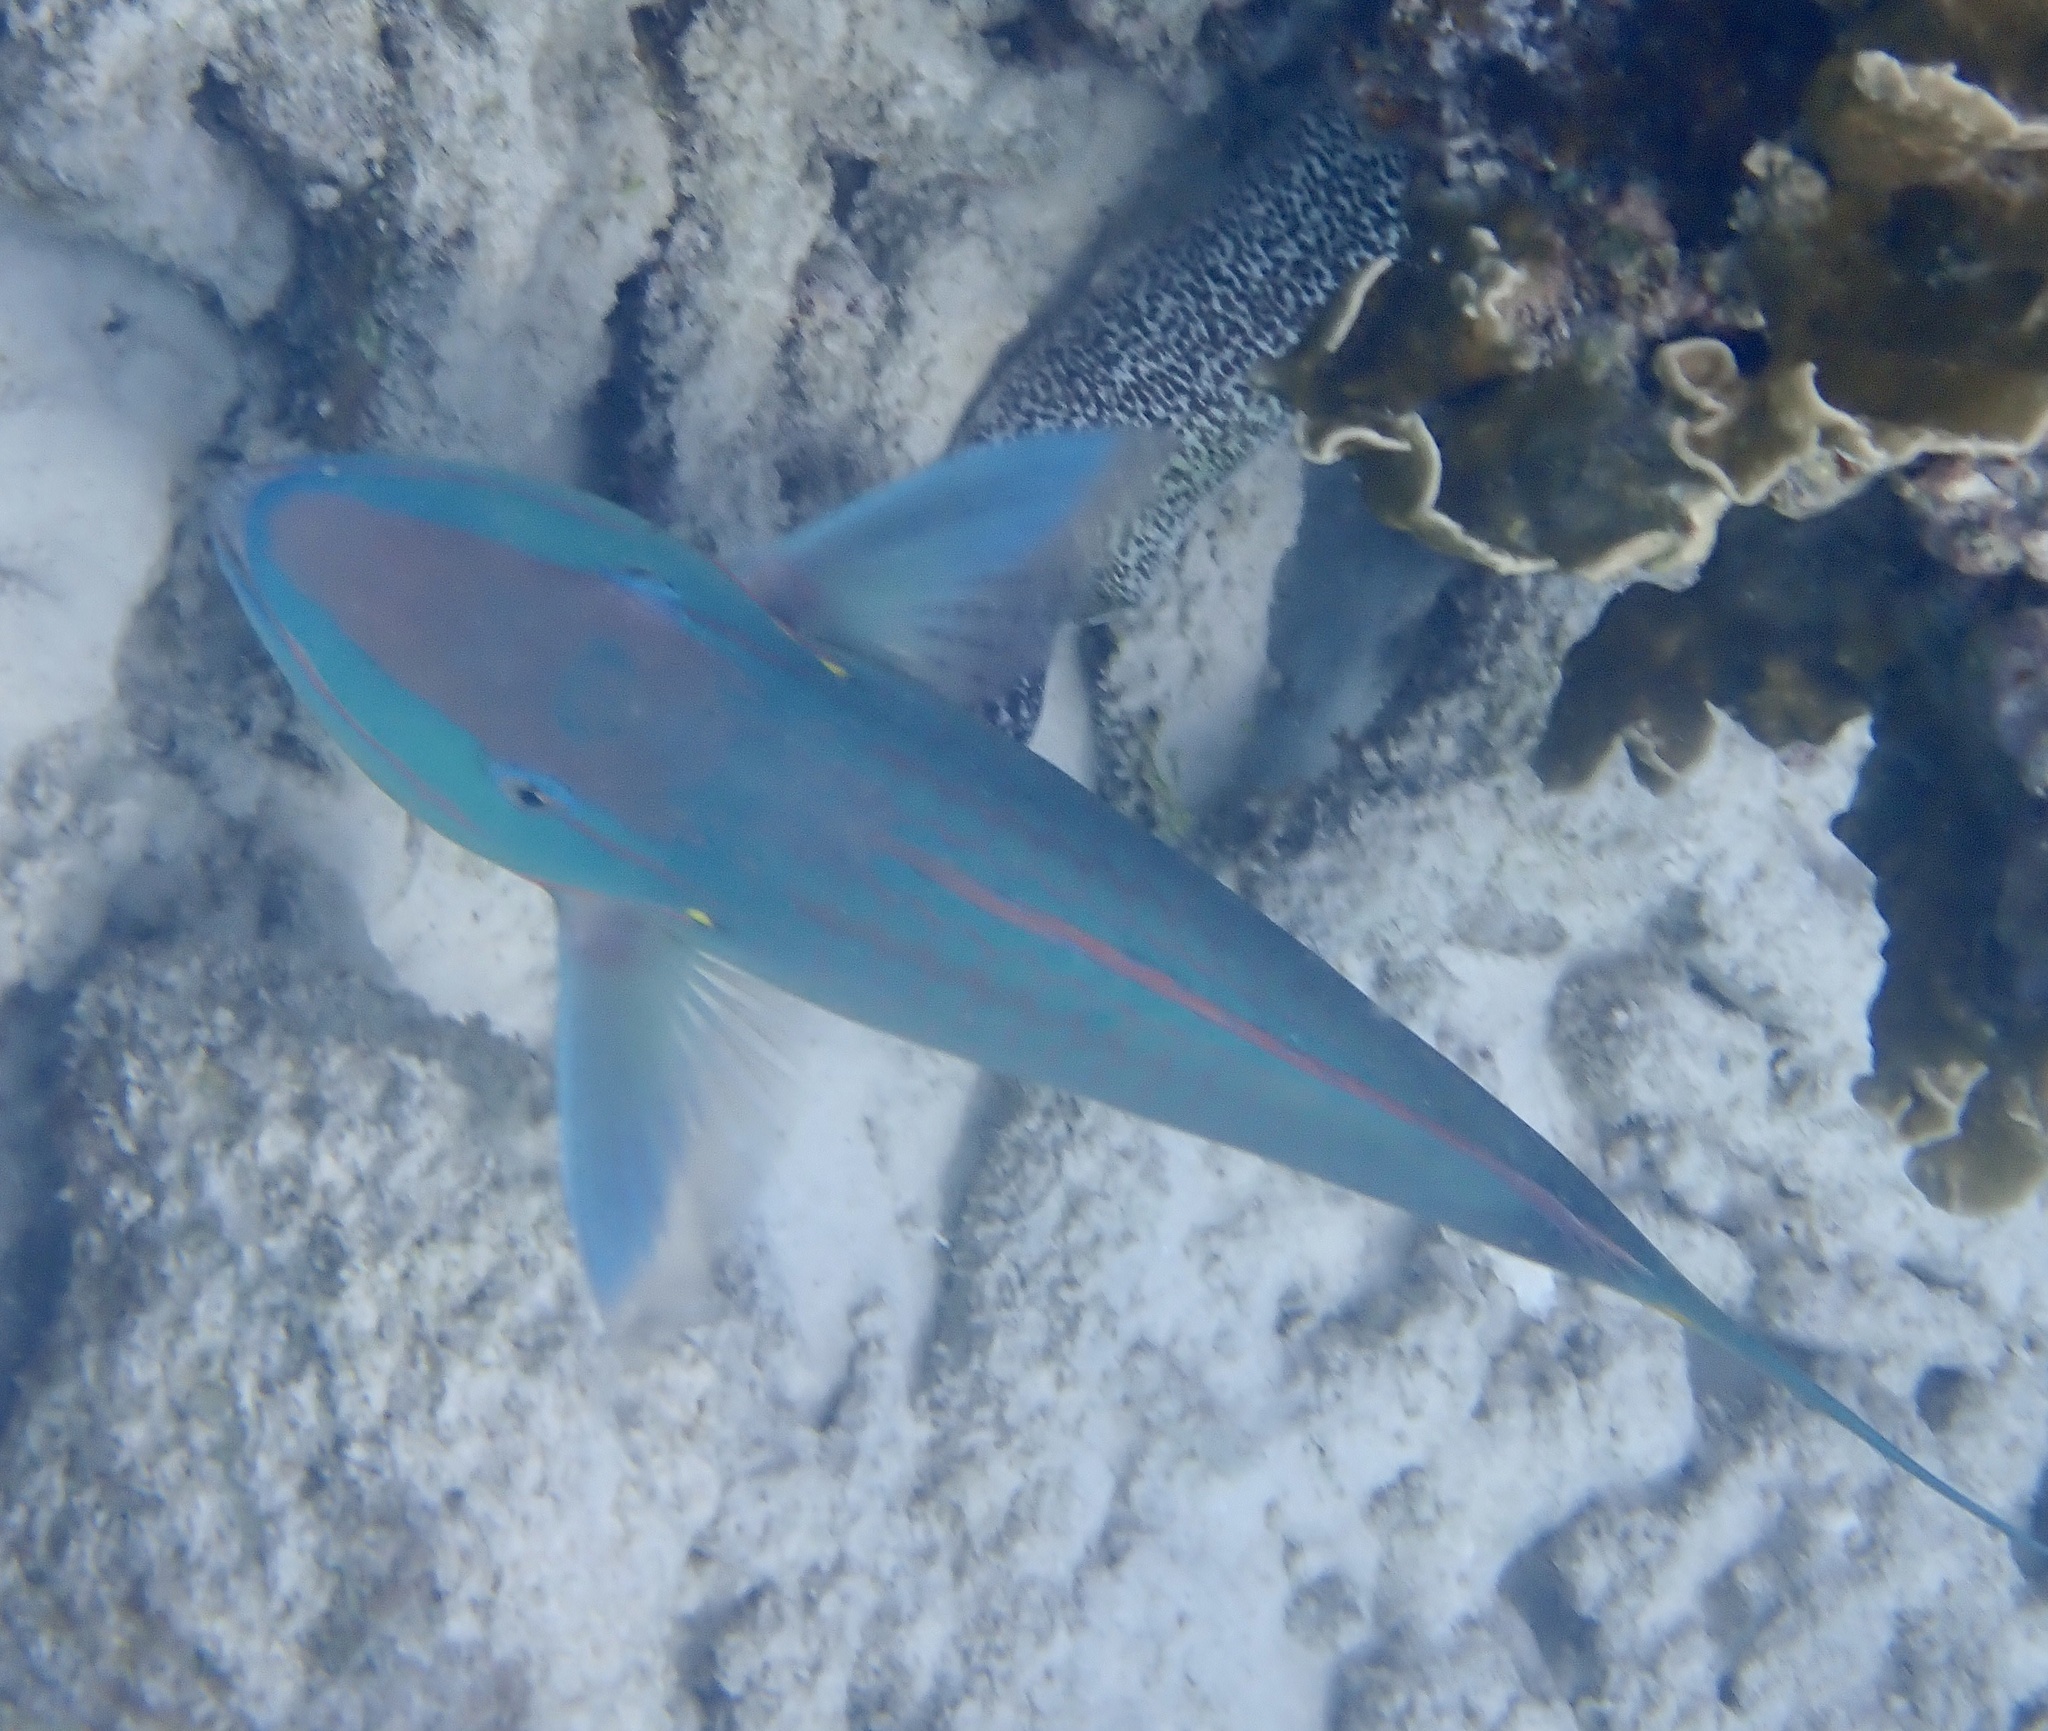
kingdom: Animalia
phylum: Chordata
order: Perciformes
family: Scaridae
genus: Sparisoma
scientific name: Sparisoma viride
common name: Stoplight parrotfish
